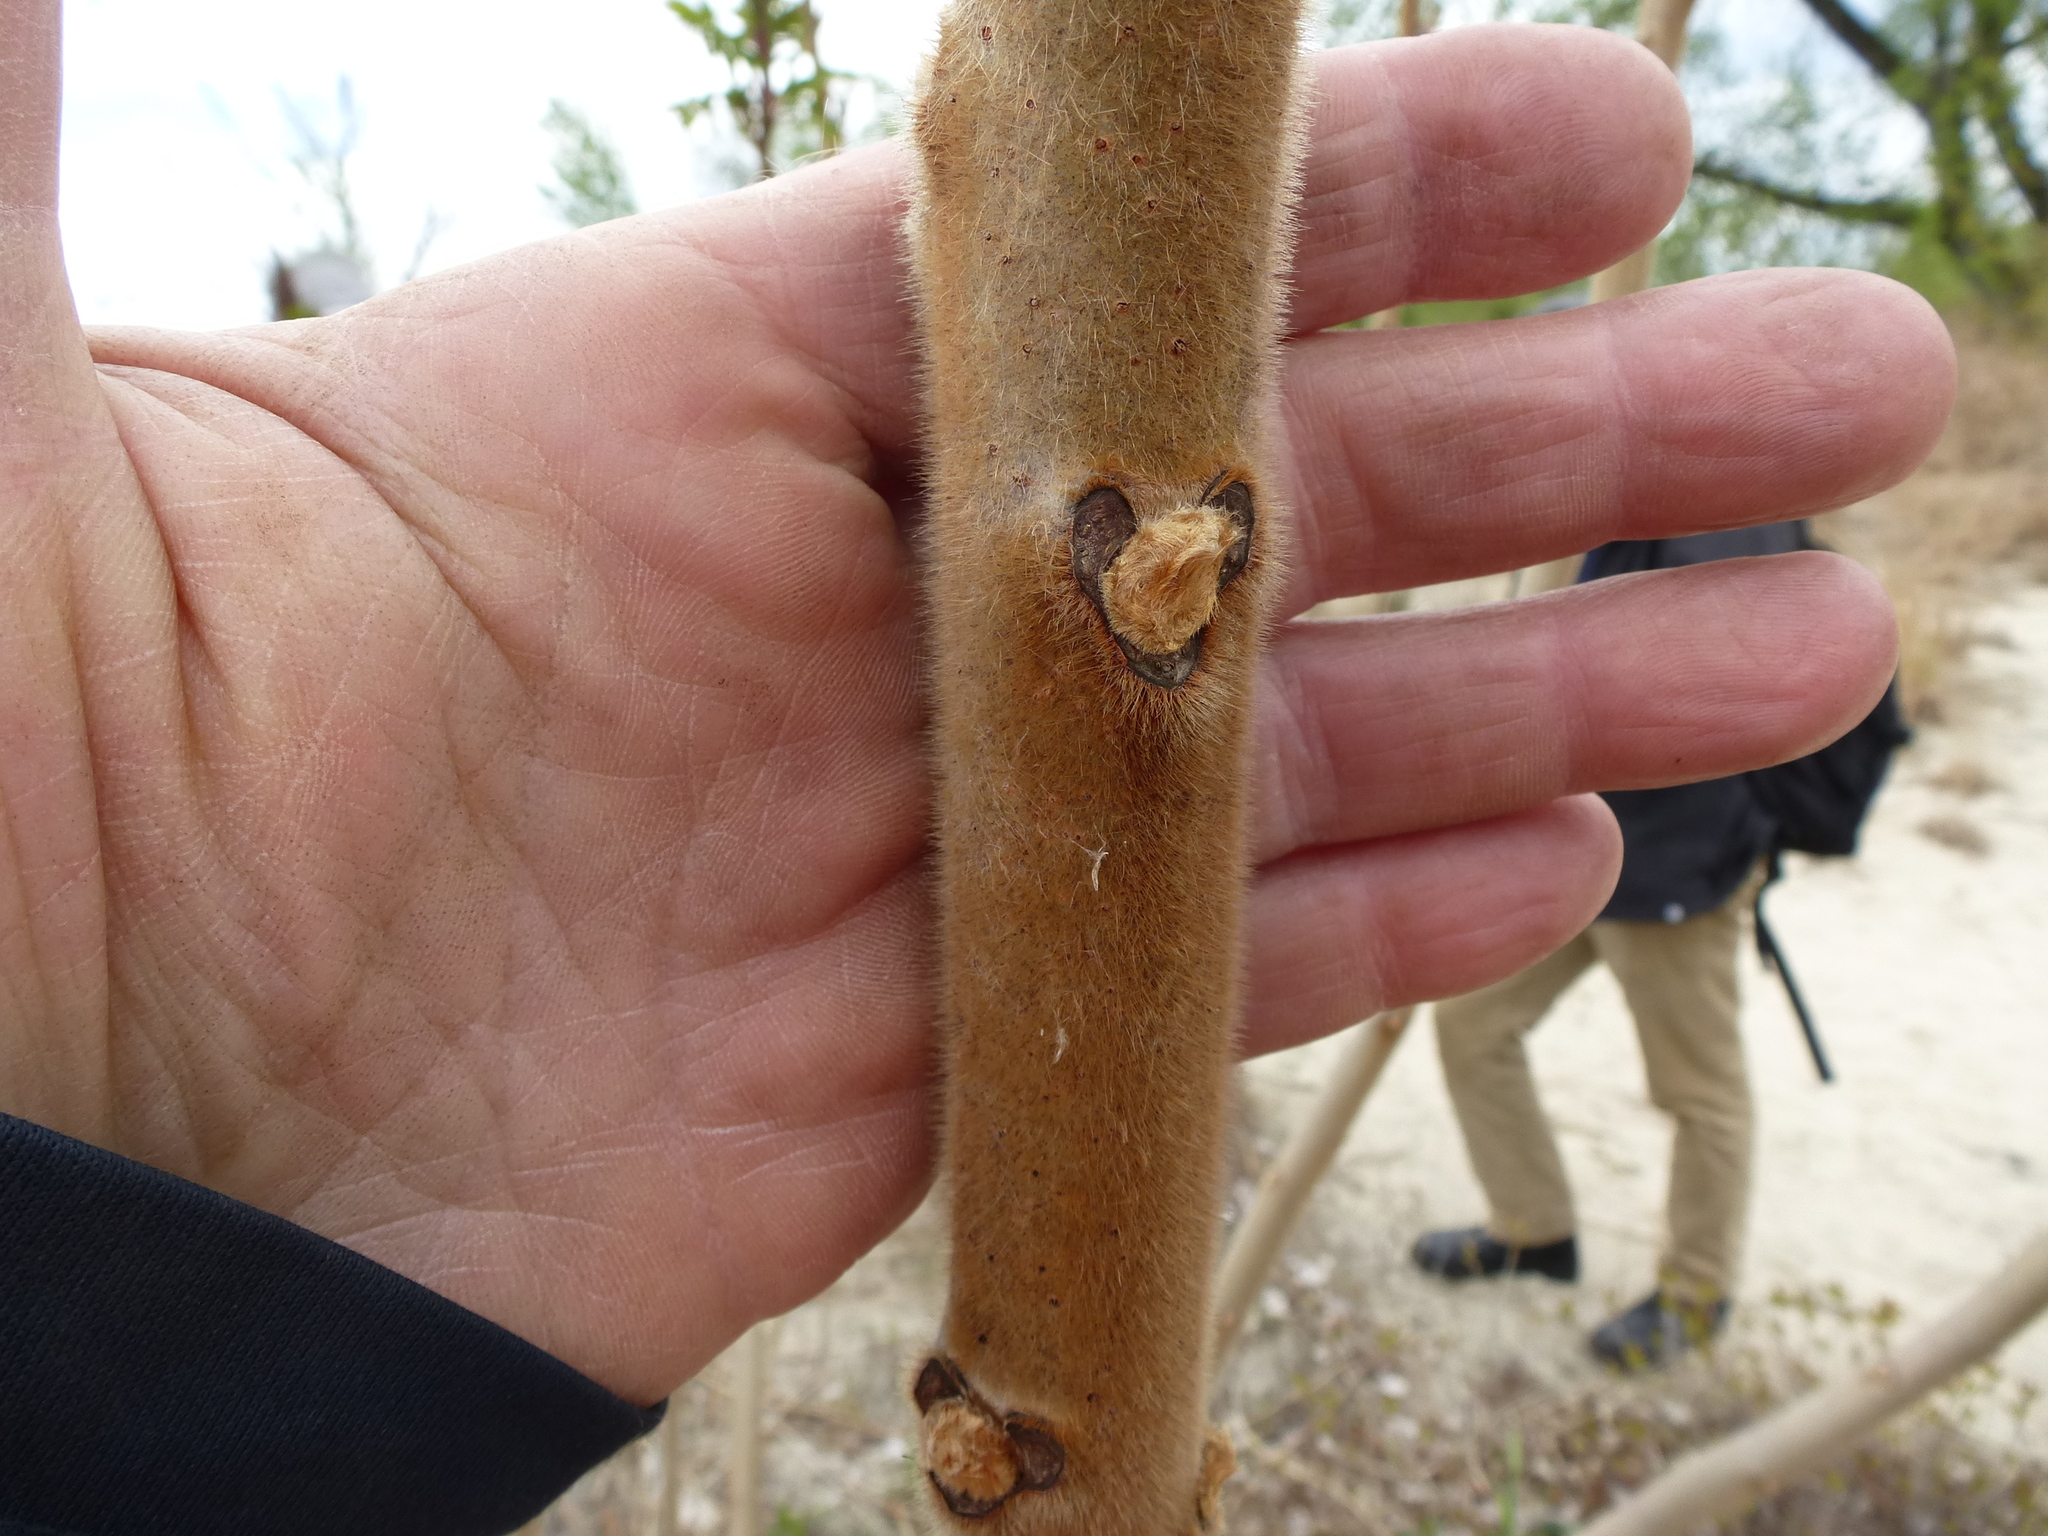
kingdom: Plantae
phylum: Tracheophyta
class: Magnoliopsida
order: Sapindales
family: Anacardiaceae
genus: Rhus
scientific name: Rhus typhina
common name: Staghorn sumac
